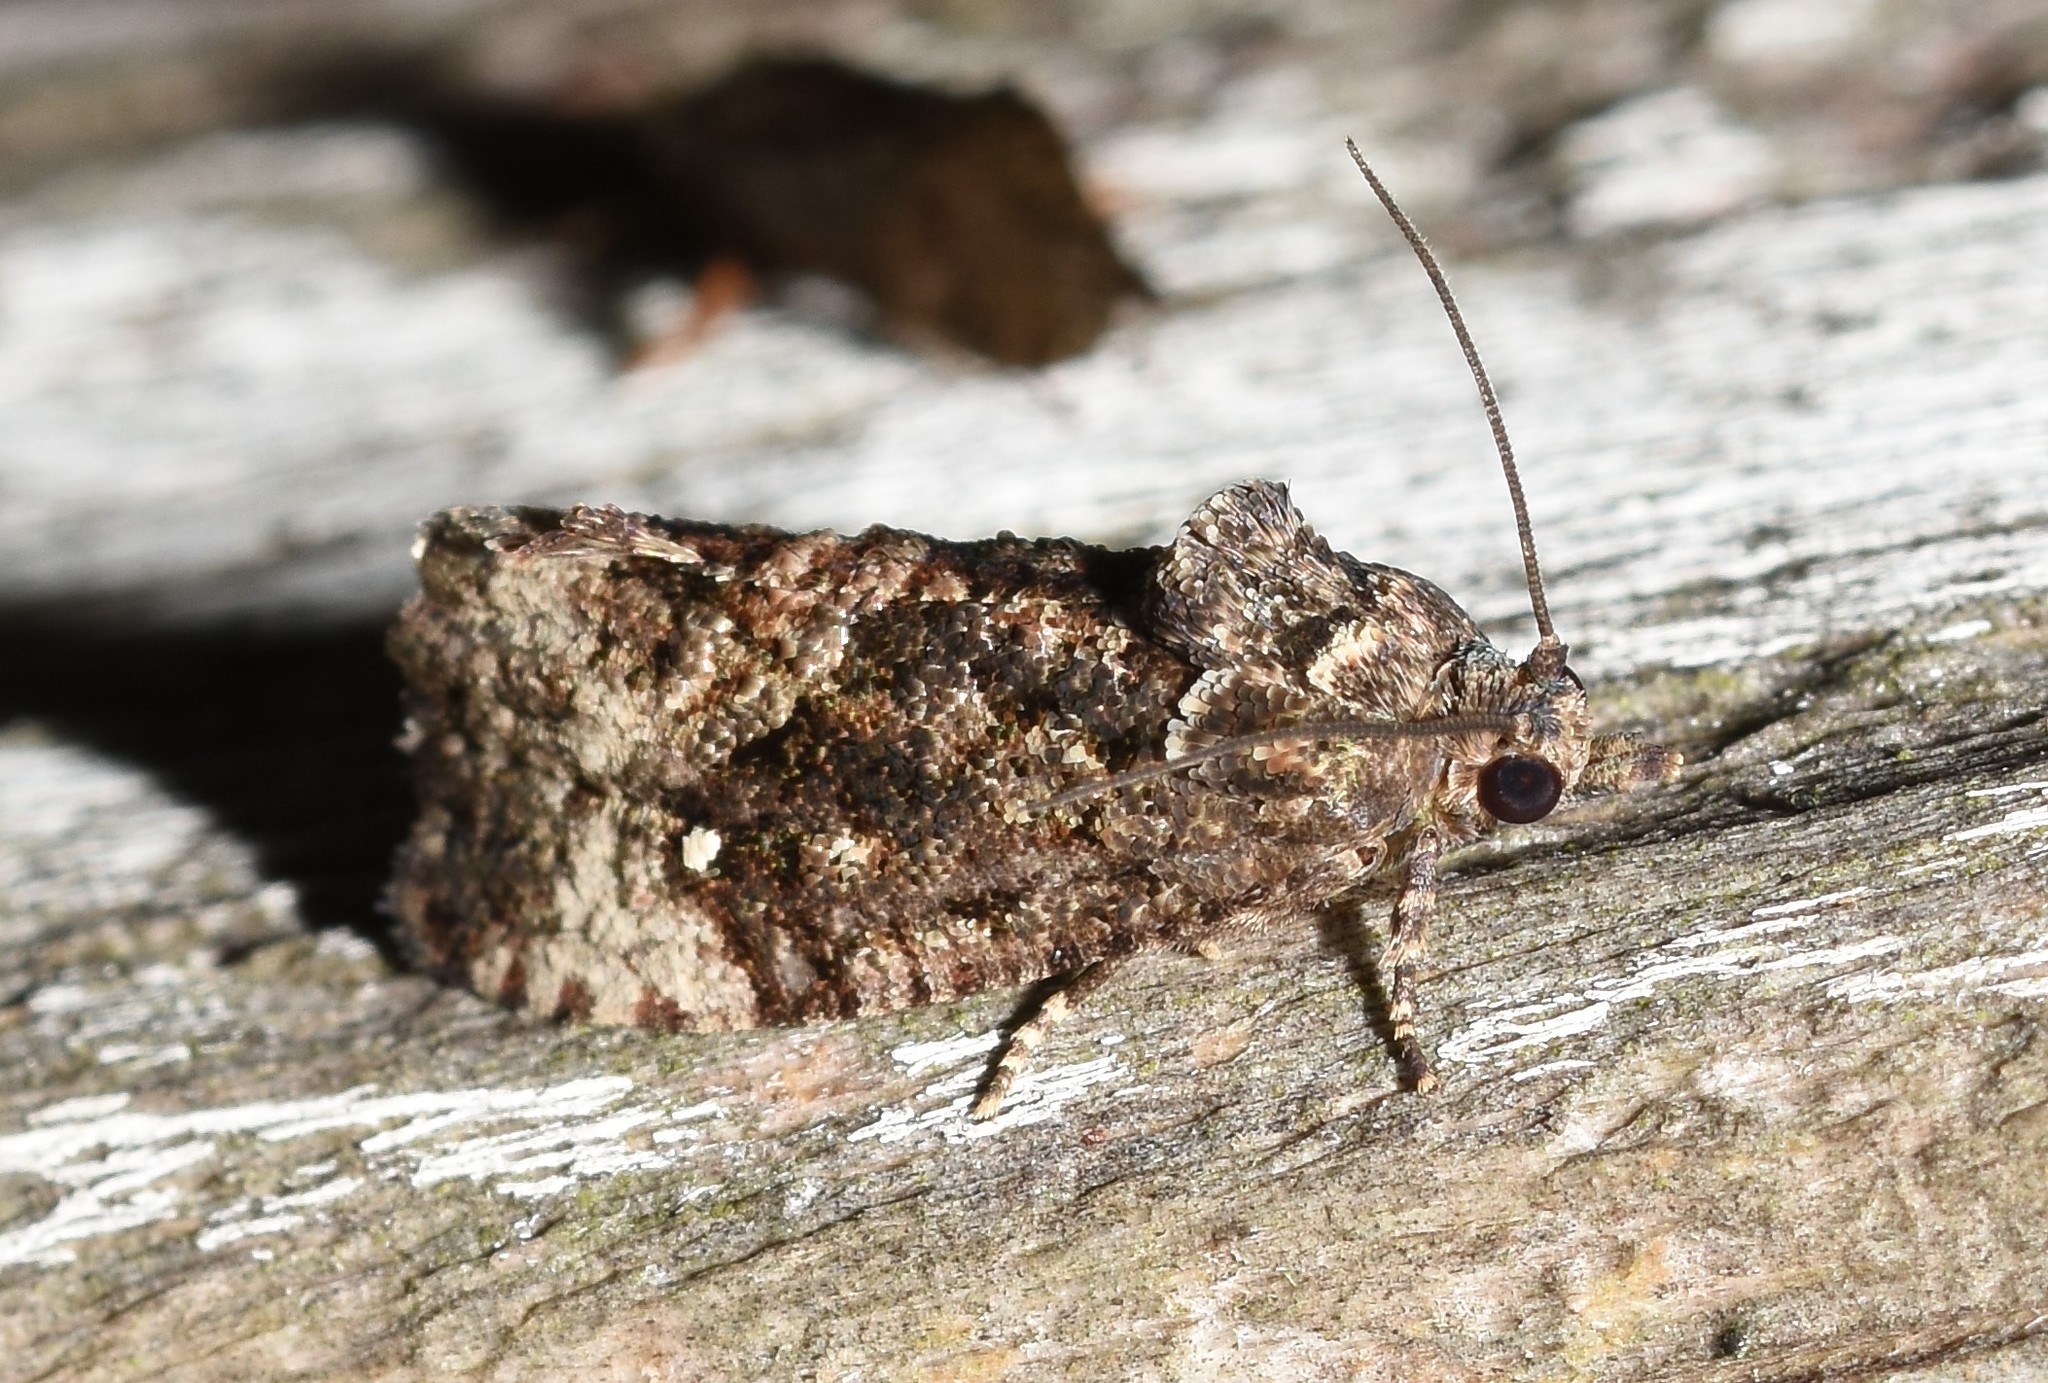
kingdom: Animalia
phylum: Arthropoda
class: Insecta
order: Lepidoptera
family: Tortricidae
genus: Gymnandrosoma
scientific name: Gymnandrosoma punctidiscanum
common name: Dotted ecdytolopha moth
